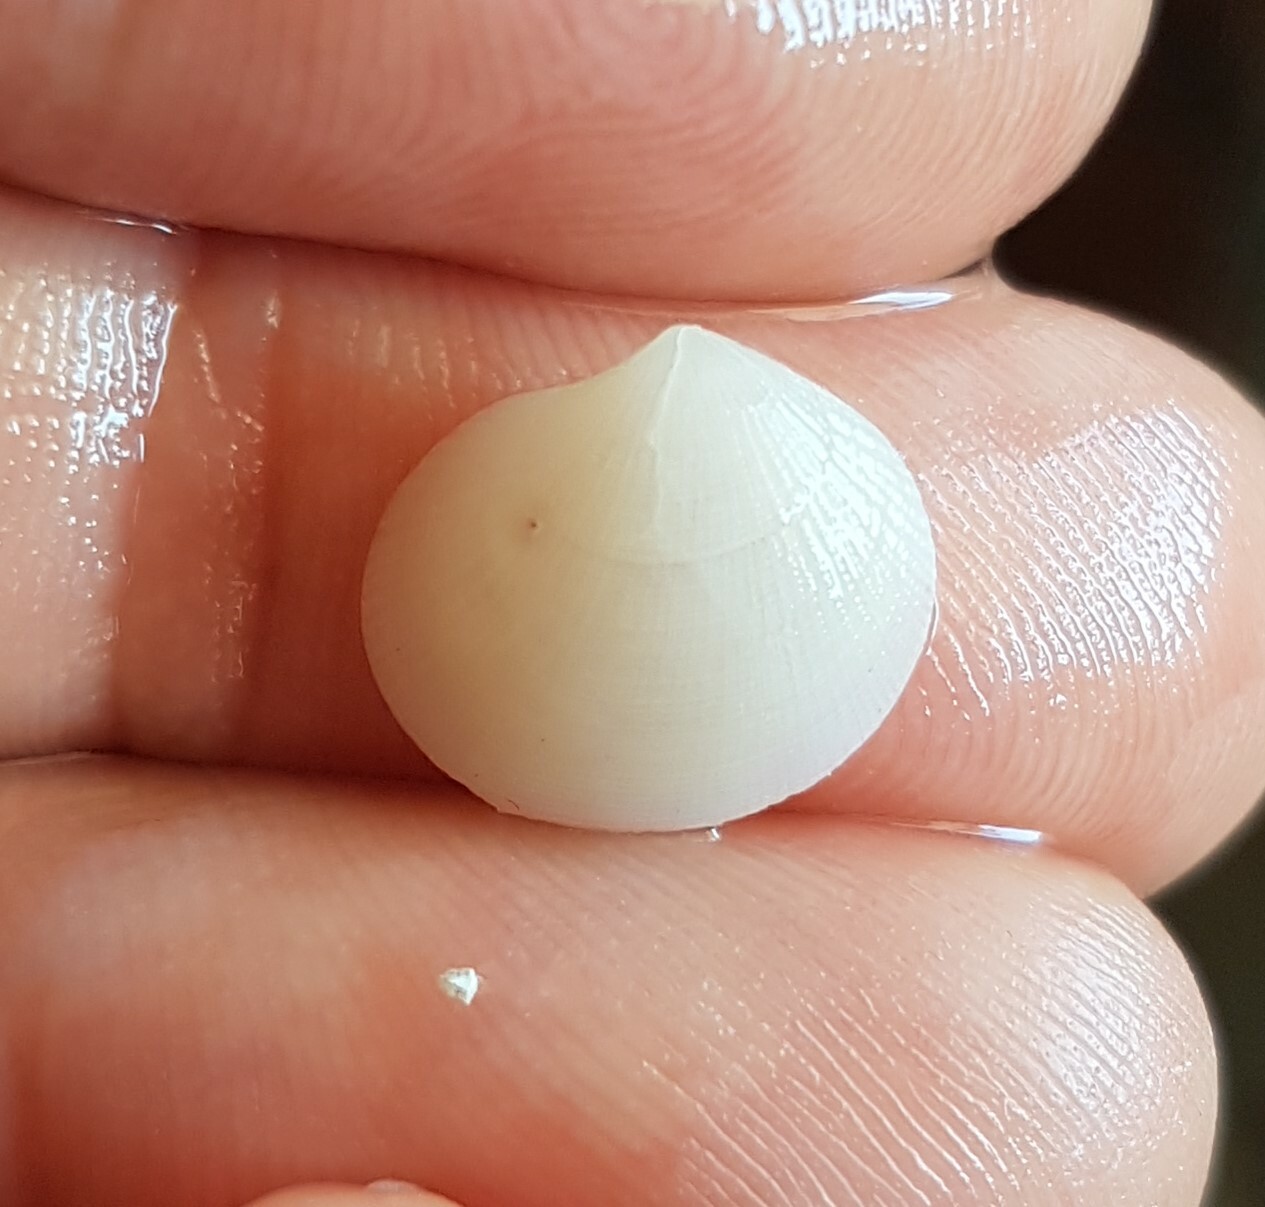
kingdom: Animalia
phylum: Mollusca
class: Bivalvia
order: Lucinida
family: Lucinidae
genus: Ctena
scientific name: Ctena decussata
